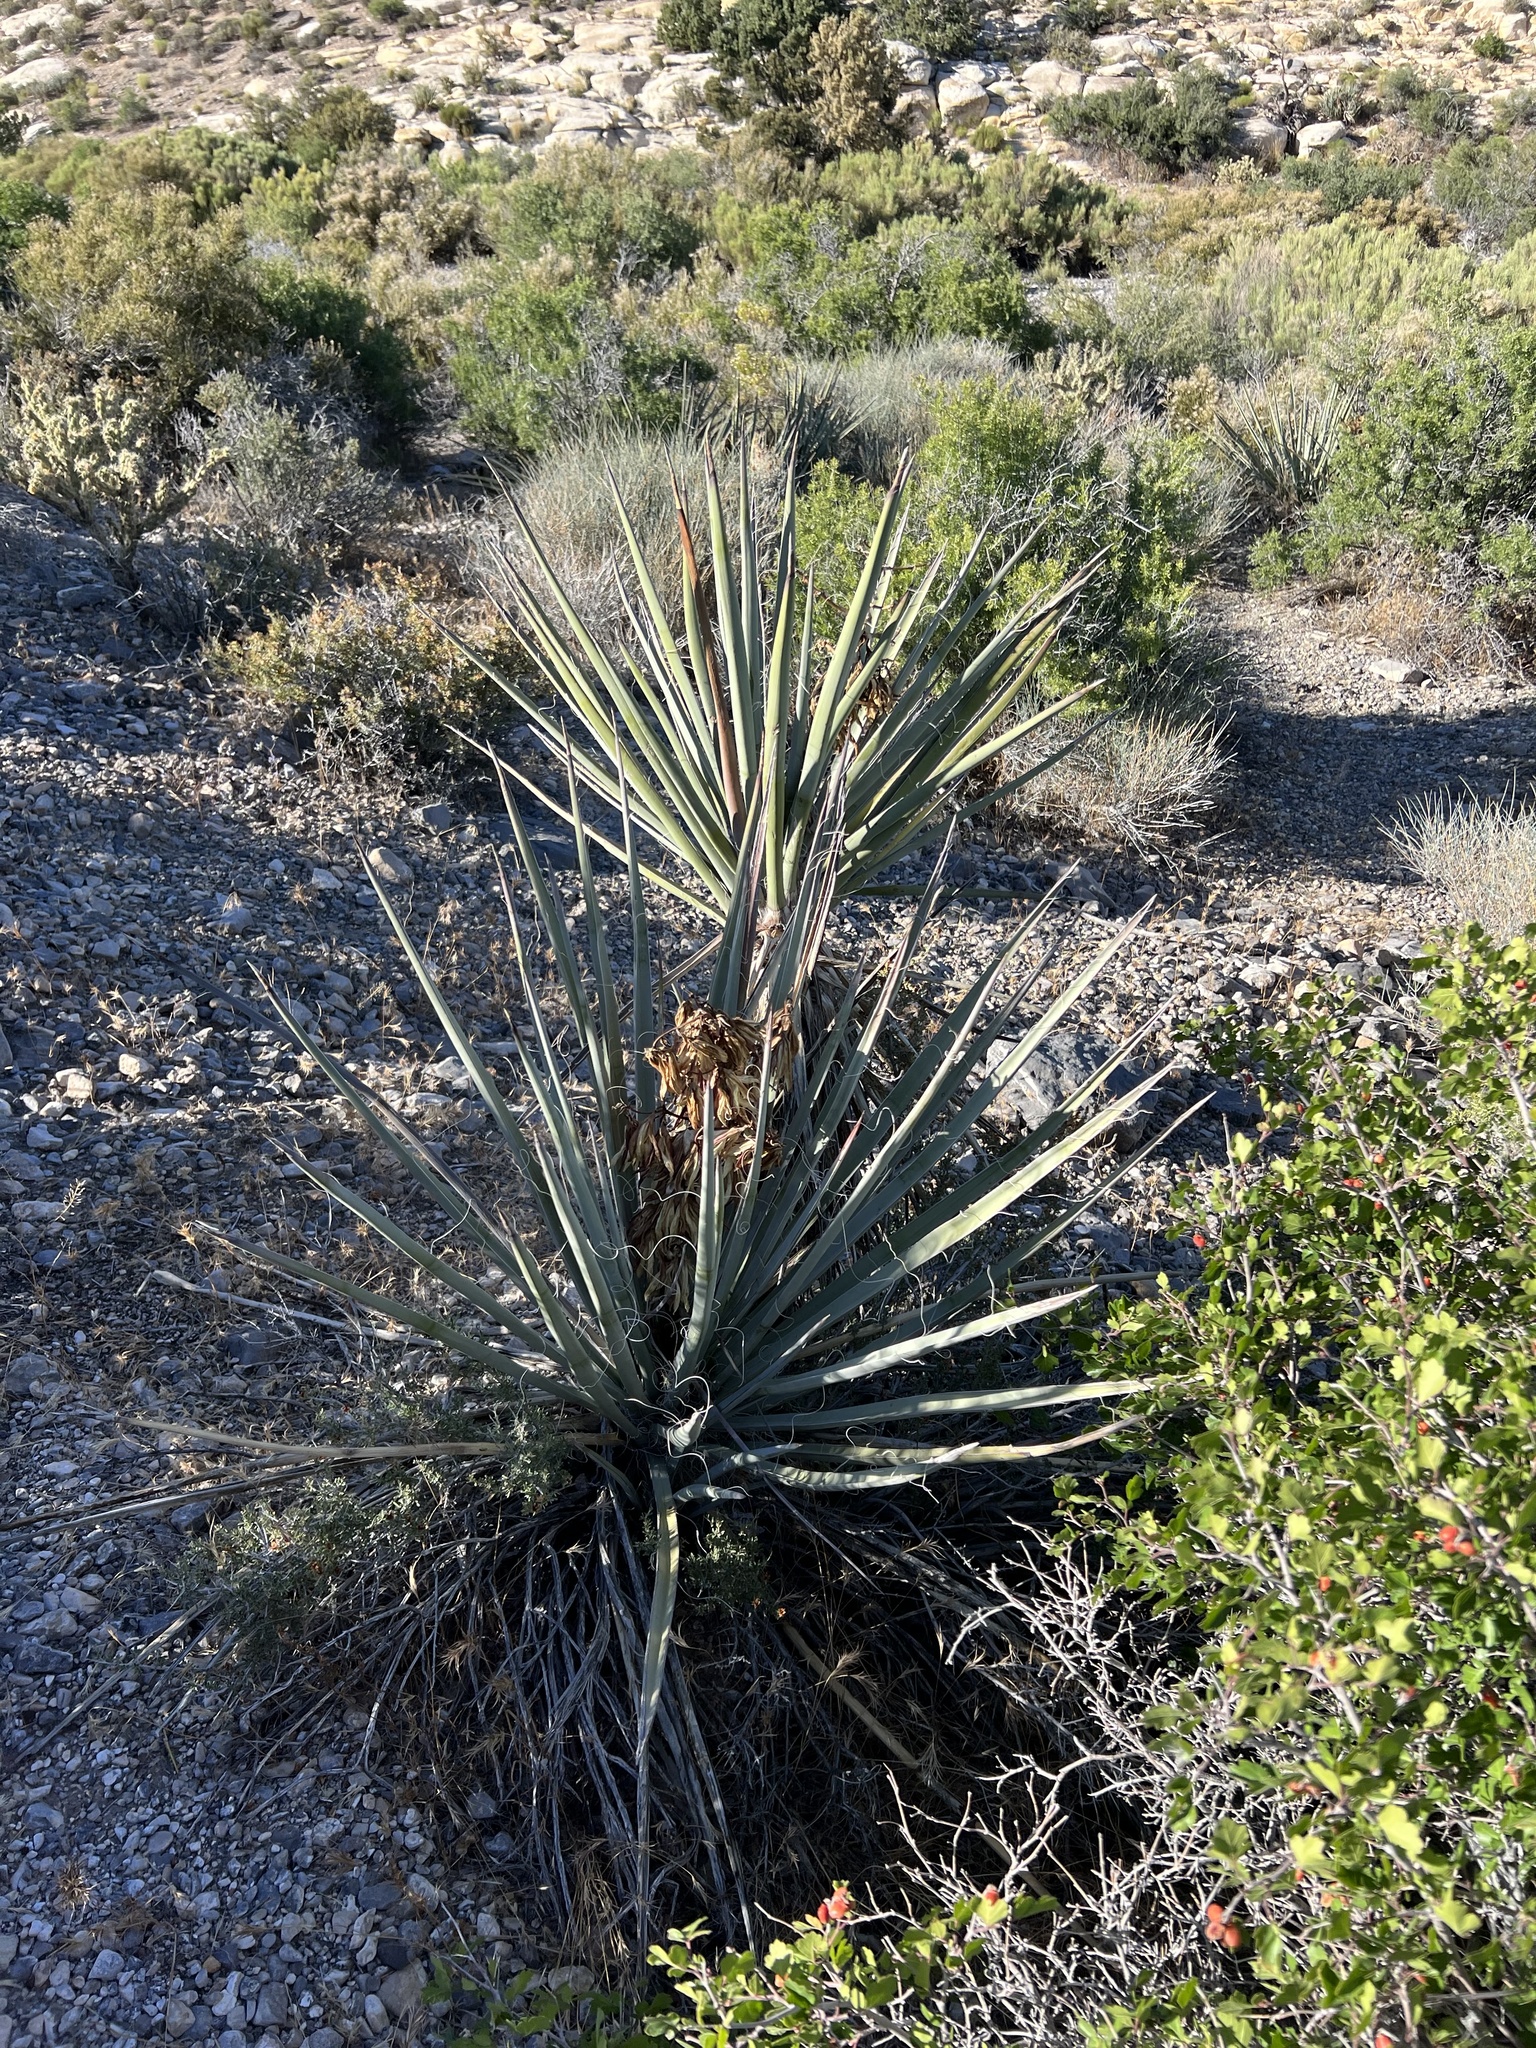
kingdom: Plantae
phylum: Tracheophyta
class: Liliopsida
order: Asparagales
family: Asparagaceae
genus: Yucca
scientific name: Yucca baccata
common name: Banana yucca
